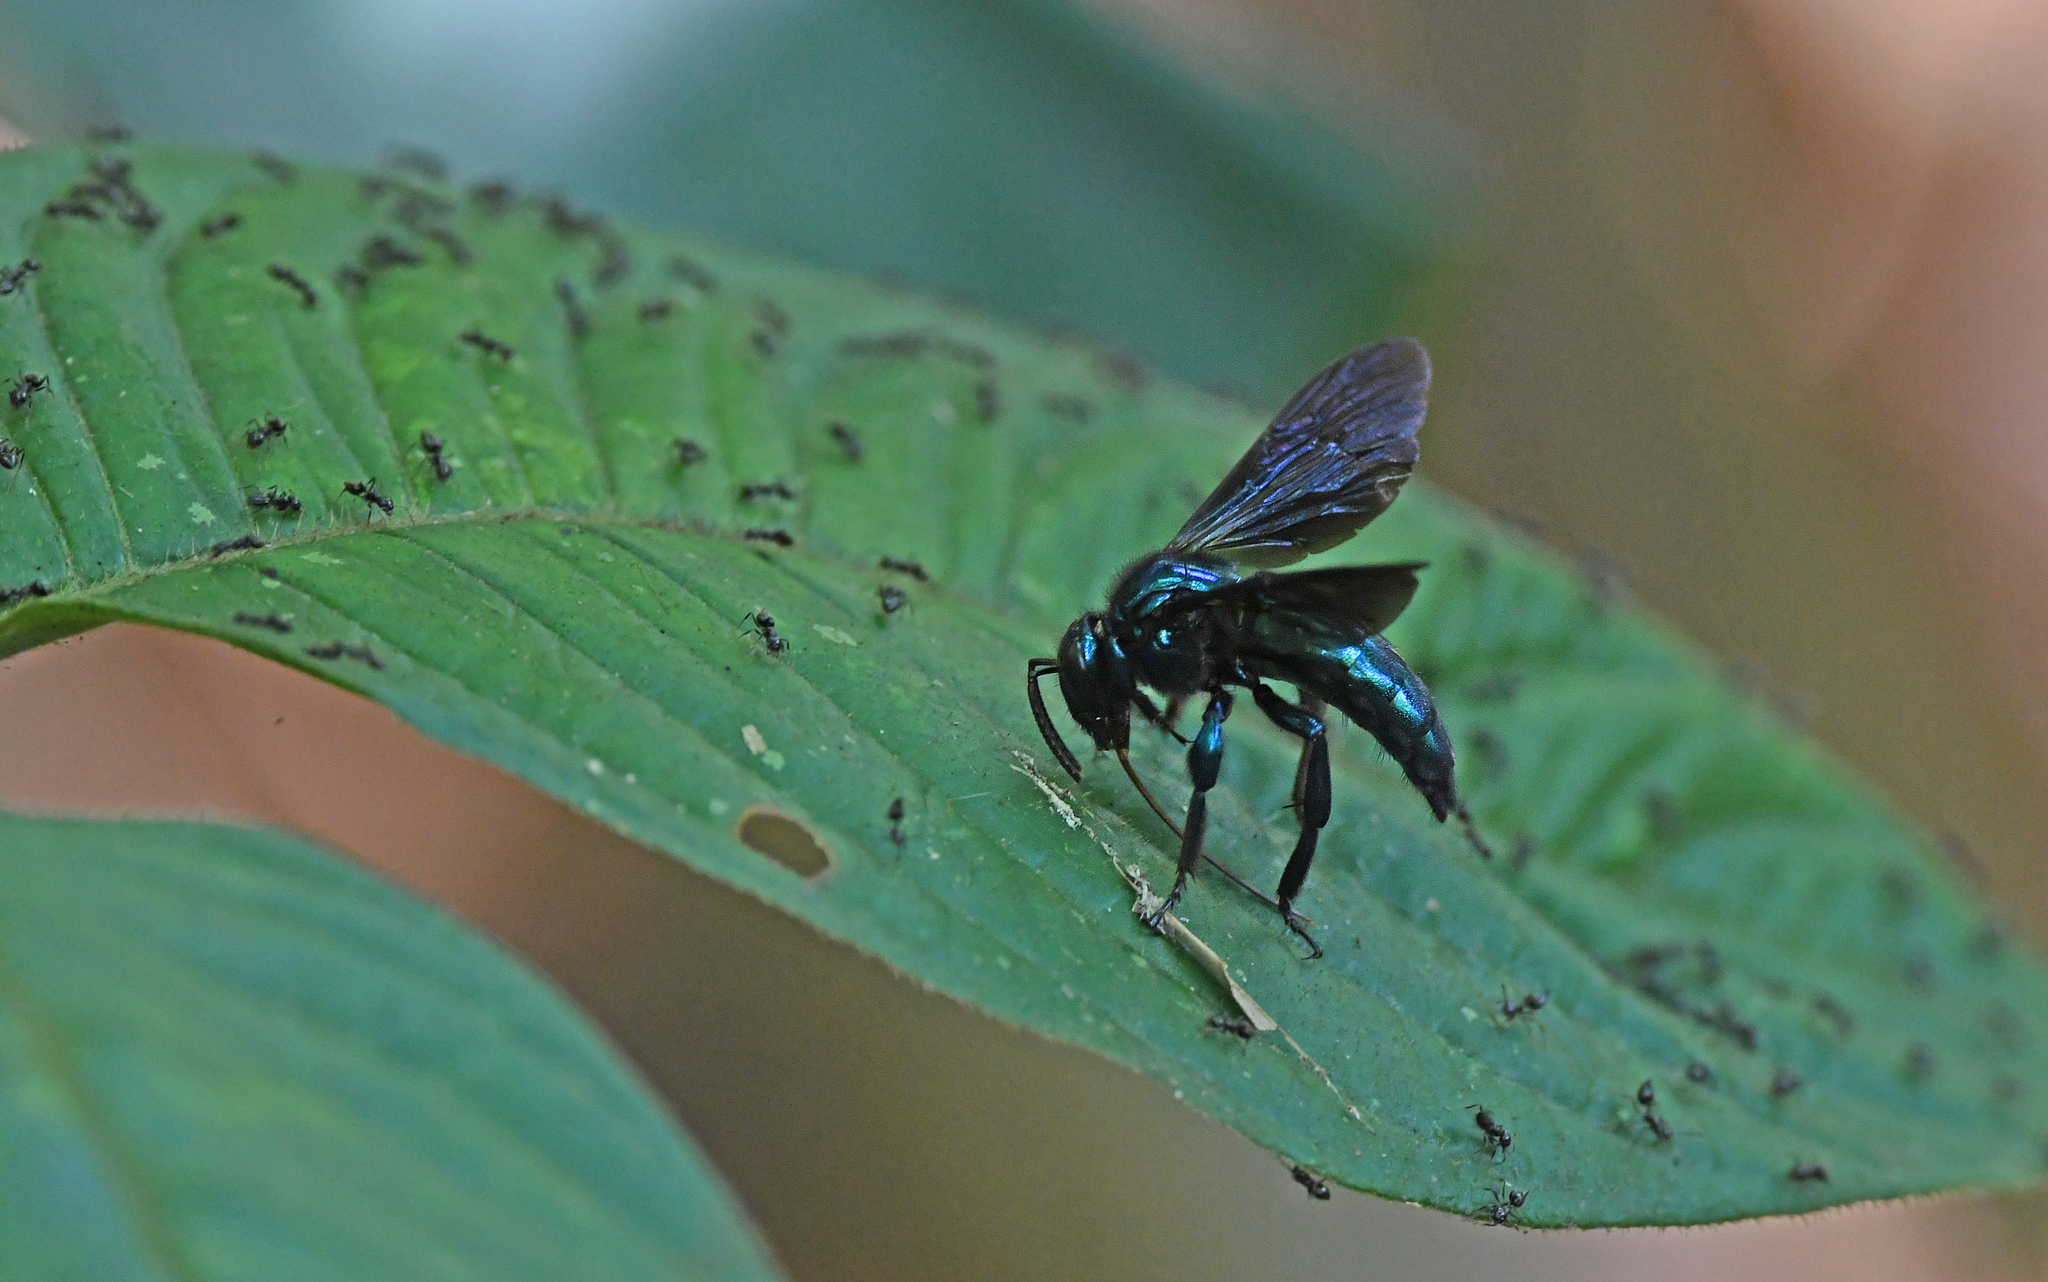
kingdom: Animalia
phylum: Arthropoda
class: Insecta
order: Hymenoptera
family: Apidae
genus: Aglae
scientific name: Aglae caerulea
